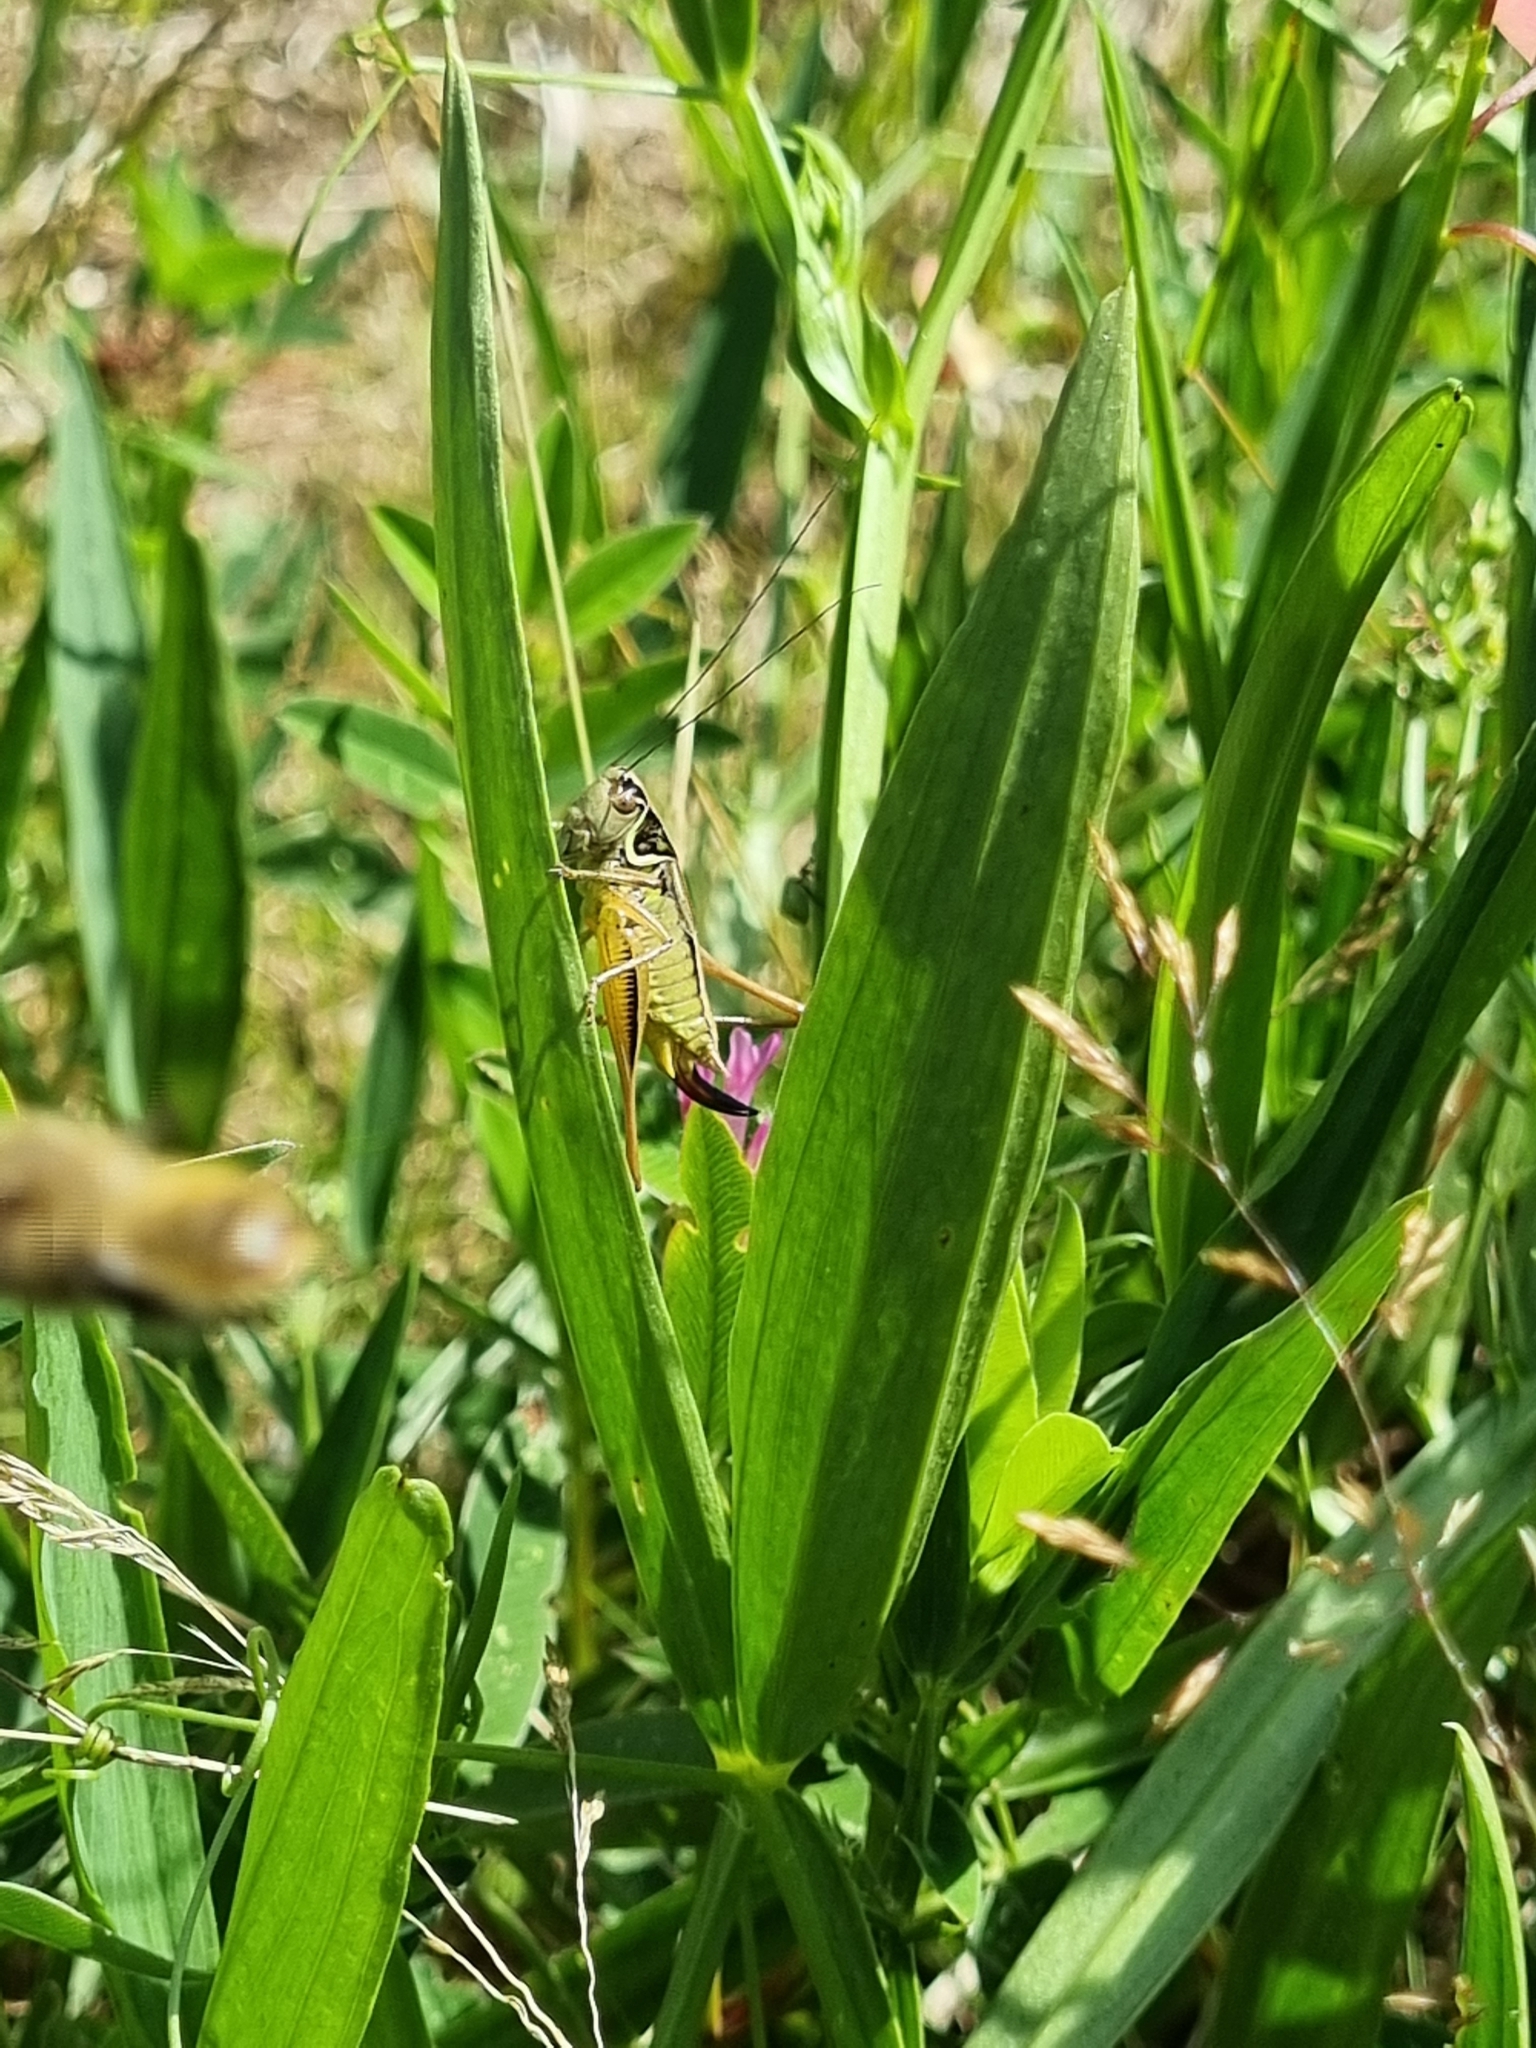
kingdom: Animalia
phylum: Arthropoda
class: Insecta
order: Orthoptera
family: Tettigoniidae
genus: Roeseliana
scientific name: Roeseliana roeselii
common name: Roesel's bush cricket
